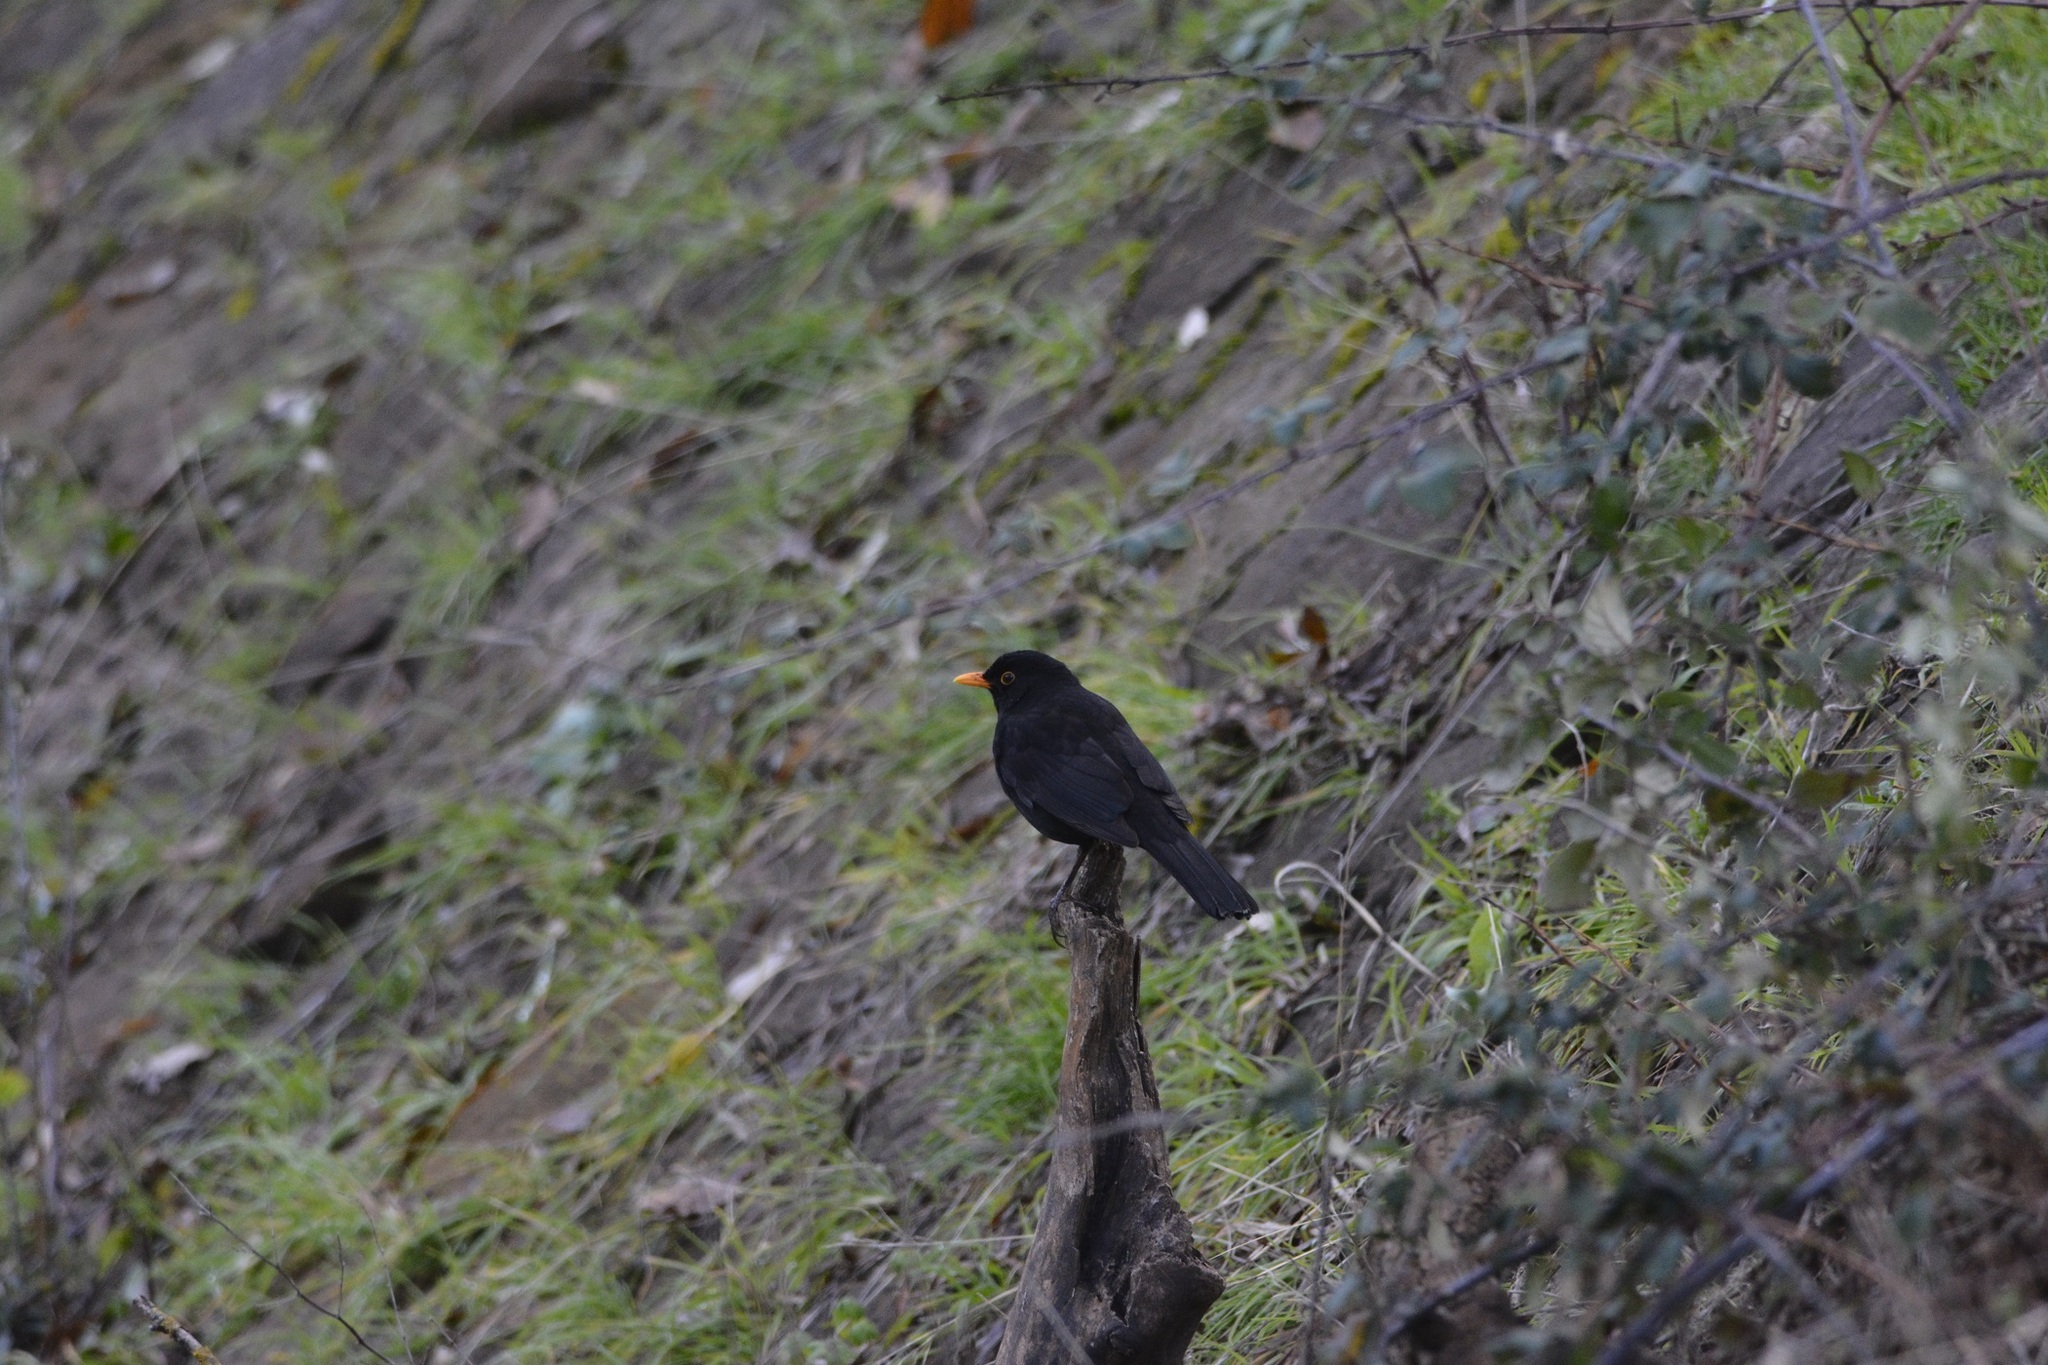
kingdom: Animalia
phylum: Chordata
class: Aves
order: Passeriformes
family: Turdidae
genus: Turdus
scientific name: Turdus merula
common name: Common blackbird
